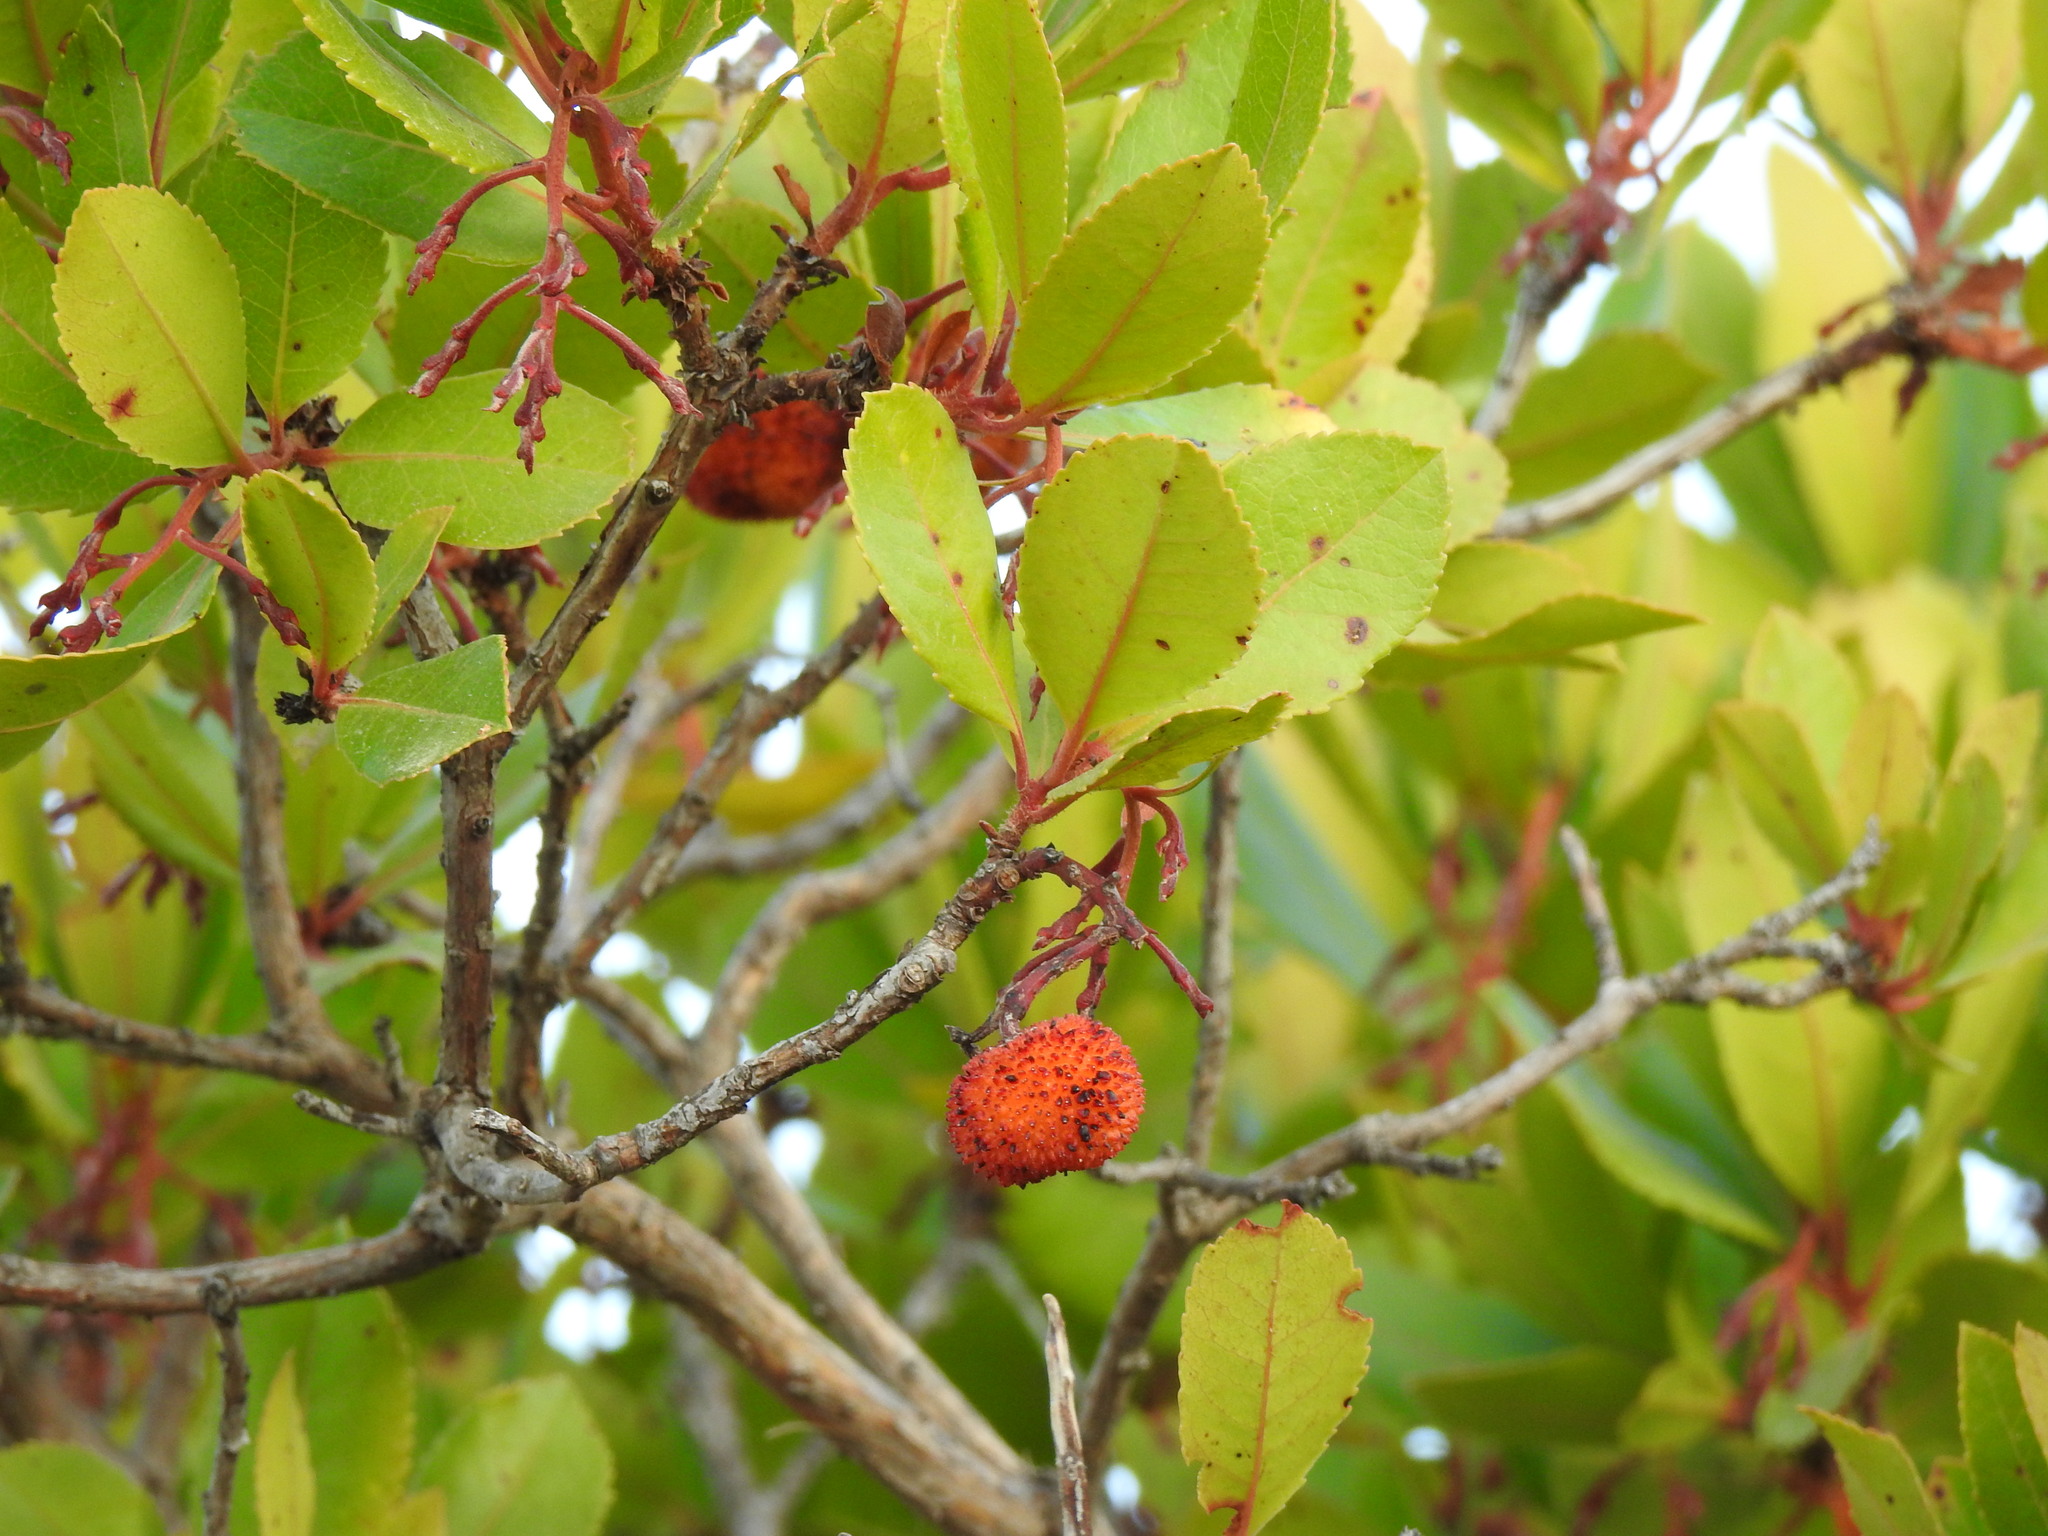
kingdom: Plantae
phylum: Tracheophyta
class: Magnoliopsida
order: Ericales
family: Ericaceae
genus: Arbutus
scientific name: Arbutus unedo
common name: Strawberry-tree
